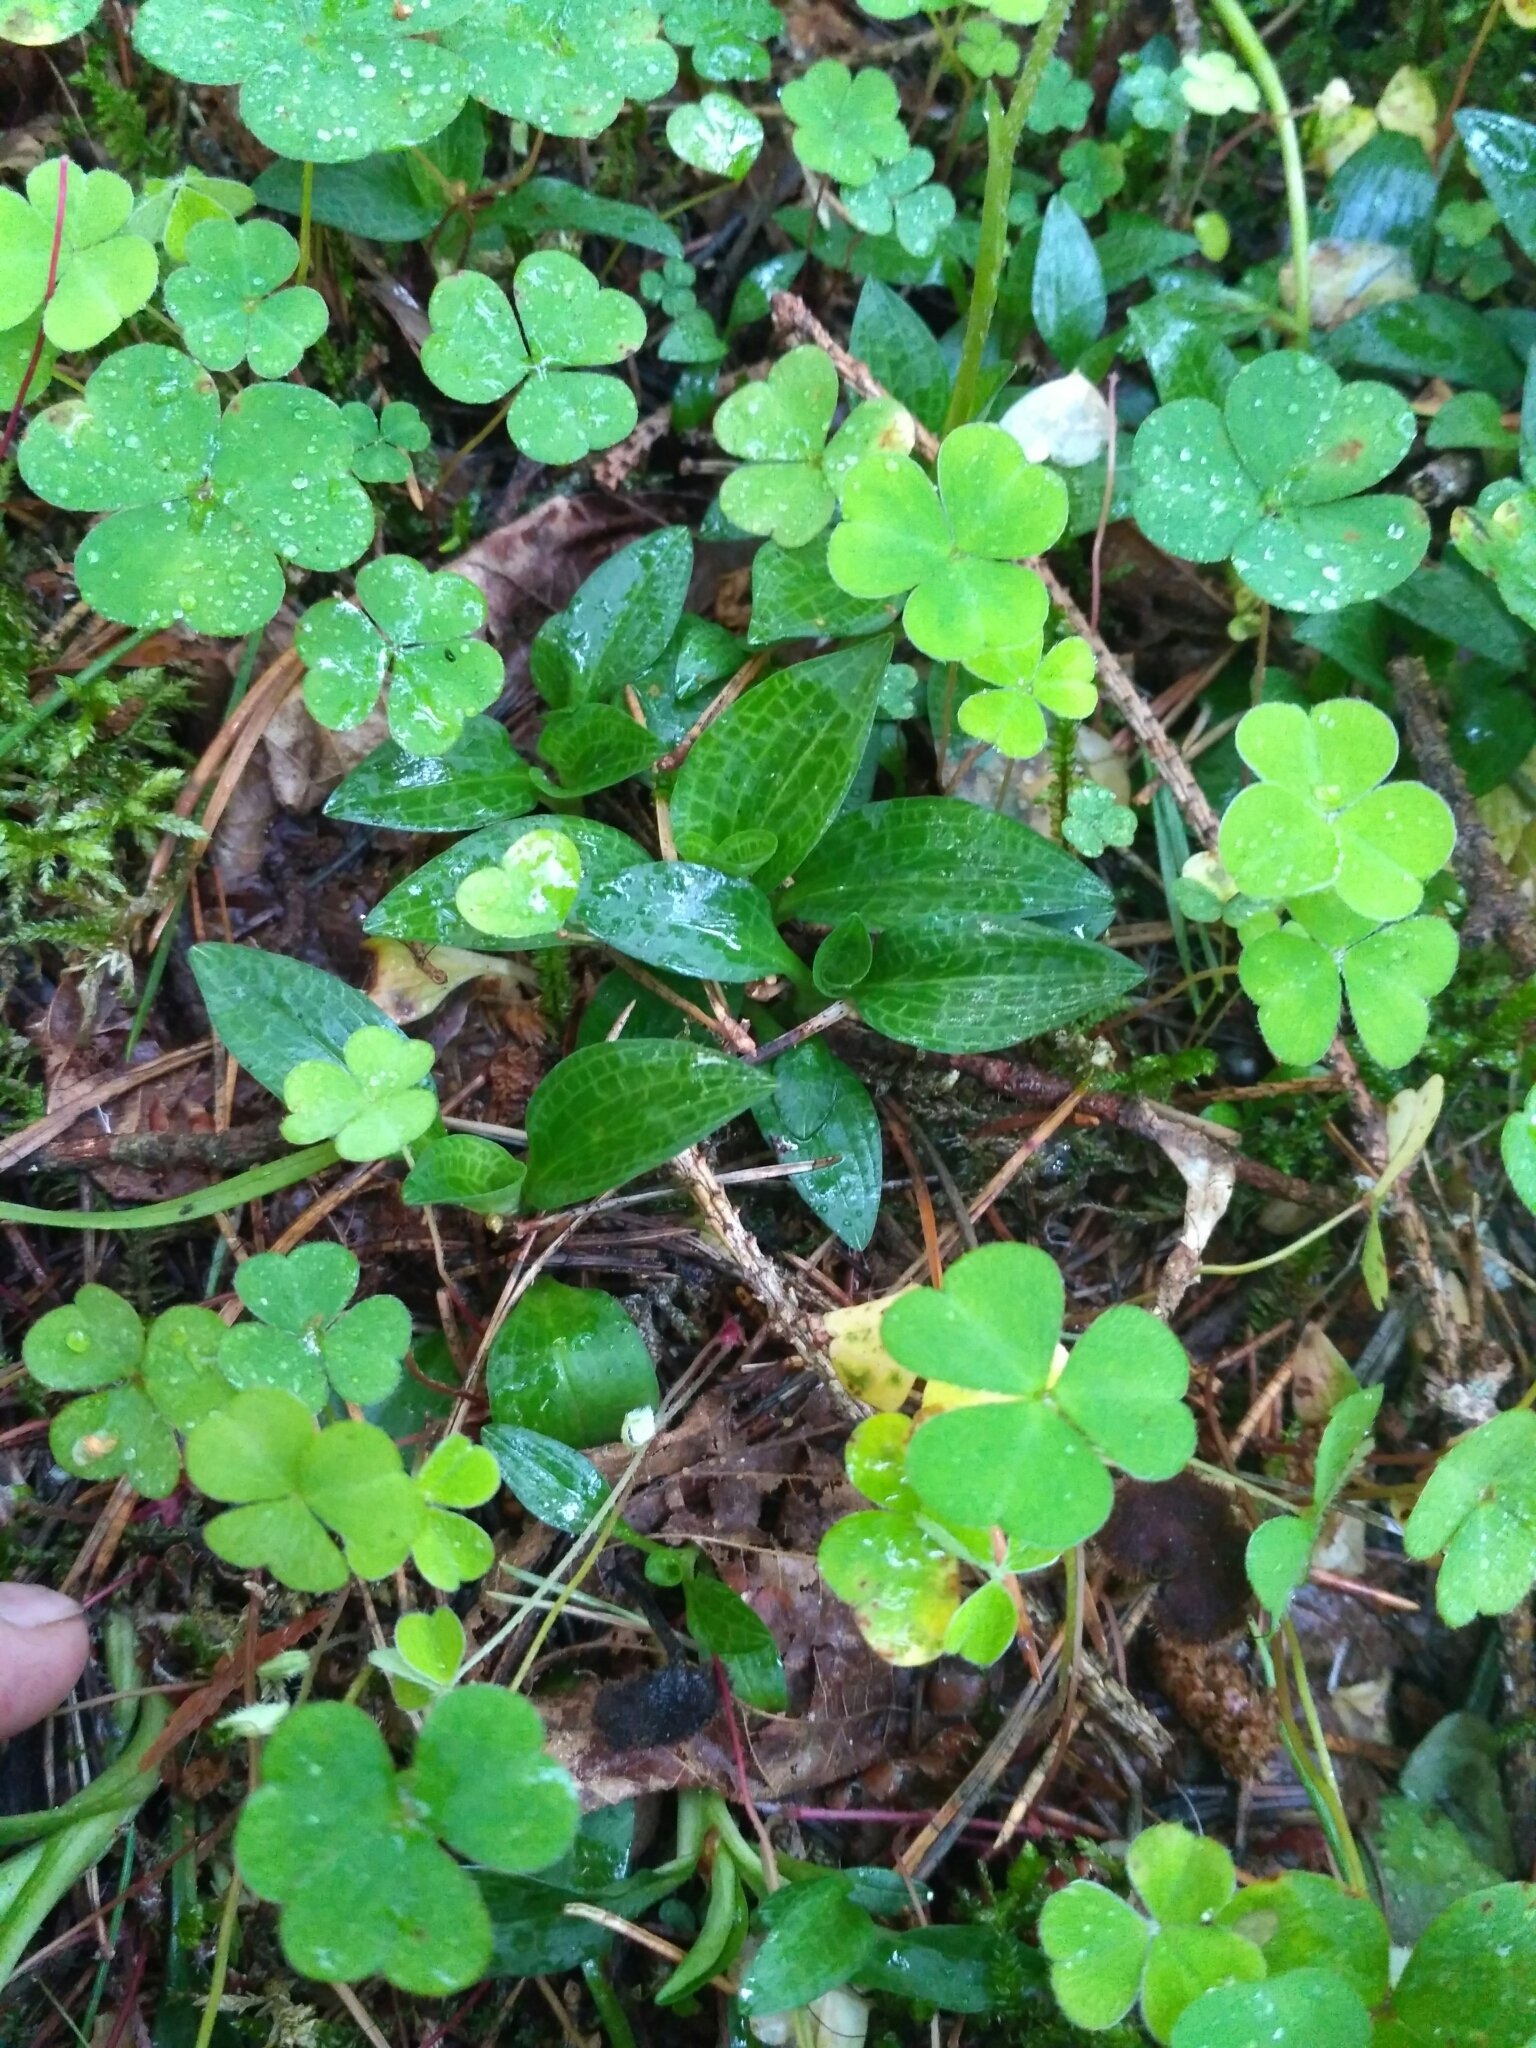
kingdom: Plantae
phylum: Tracheophyta
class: Liliopsida
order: Asparagales
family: Orchidaceae
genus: Goodyera
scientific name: Goodyera repens
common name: Creeping lady's-tresses
